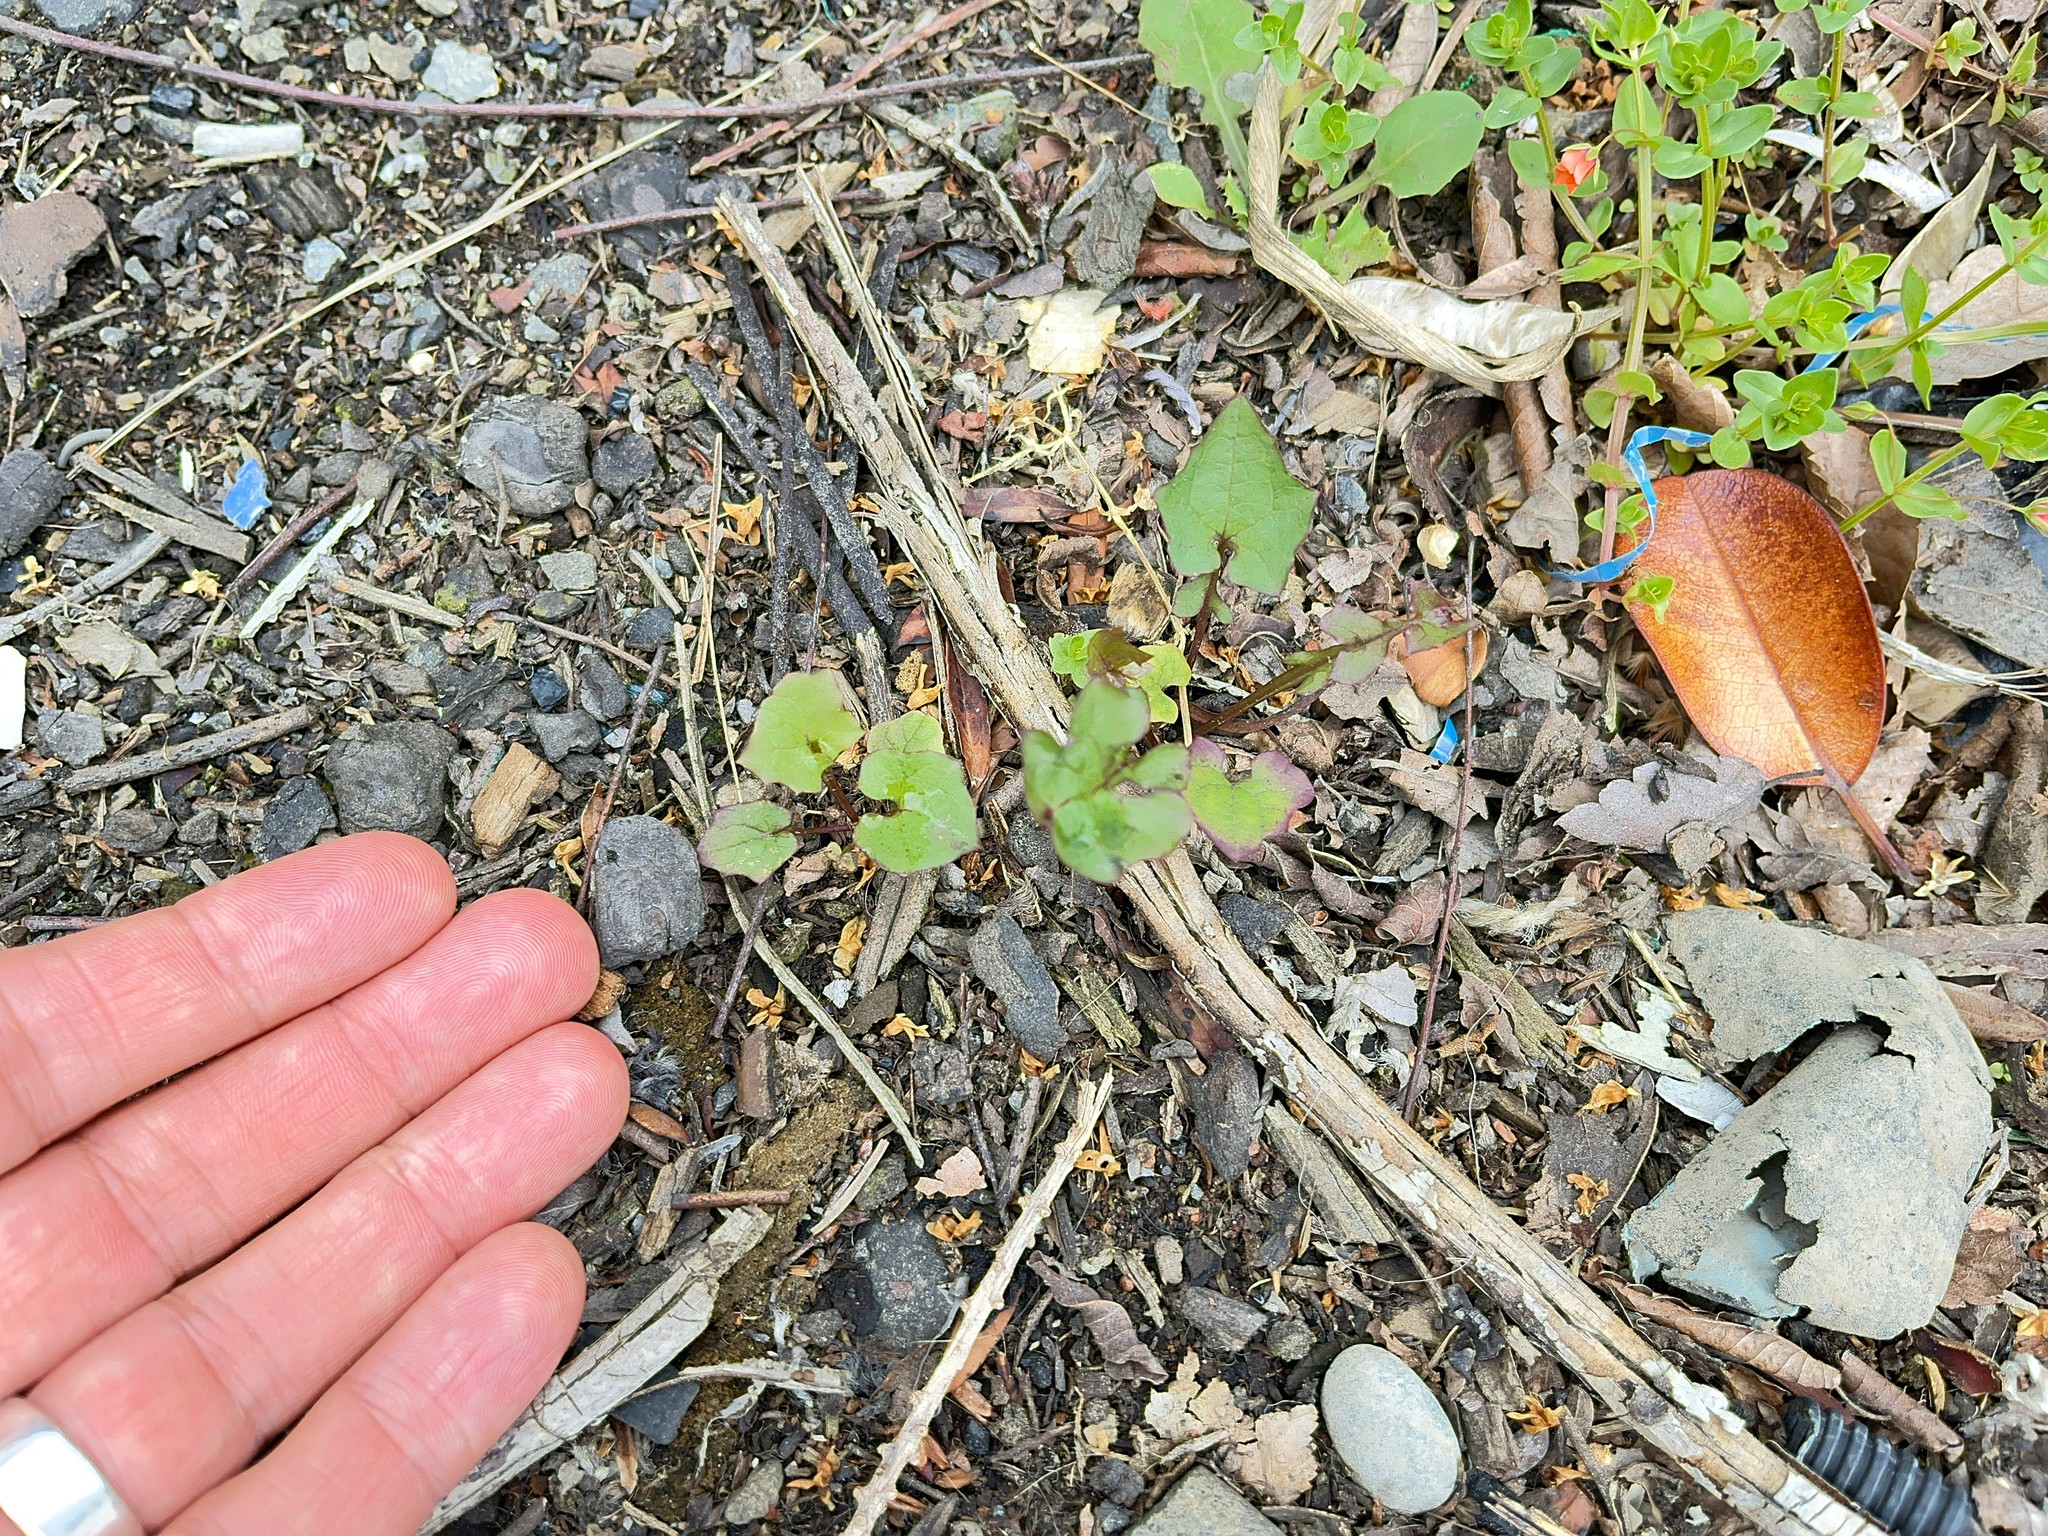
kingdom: Plantae
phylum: Tracheophyta
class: Magnoliopsida
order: Asterales
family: Asteraceae
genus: Mycelis
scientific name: Mycelis muralis
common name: Wall lettuce
